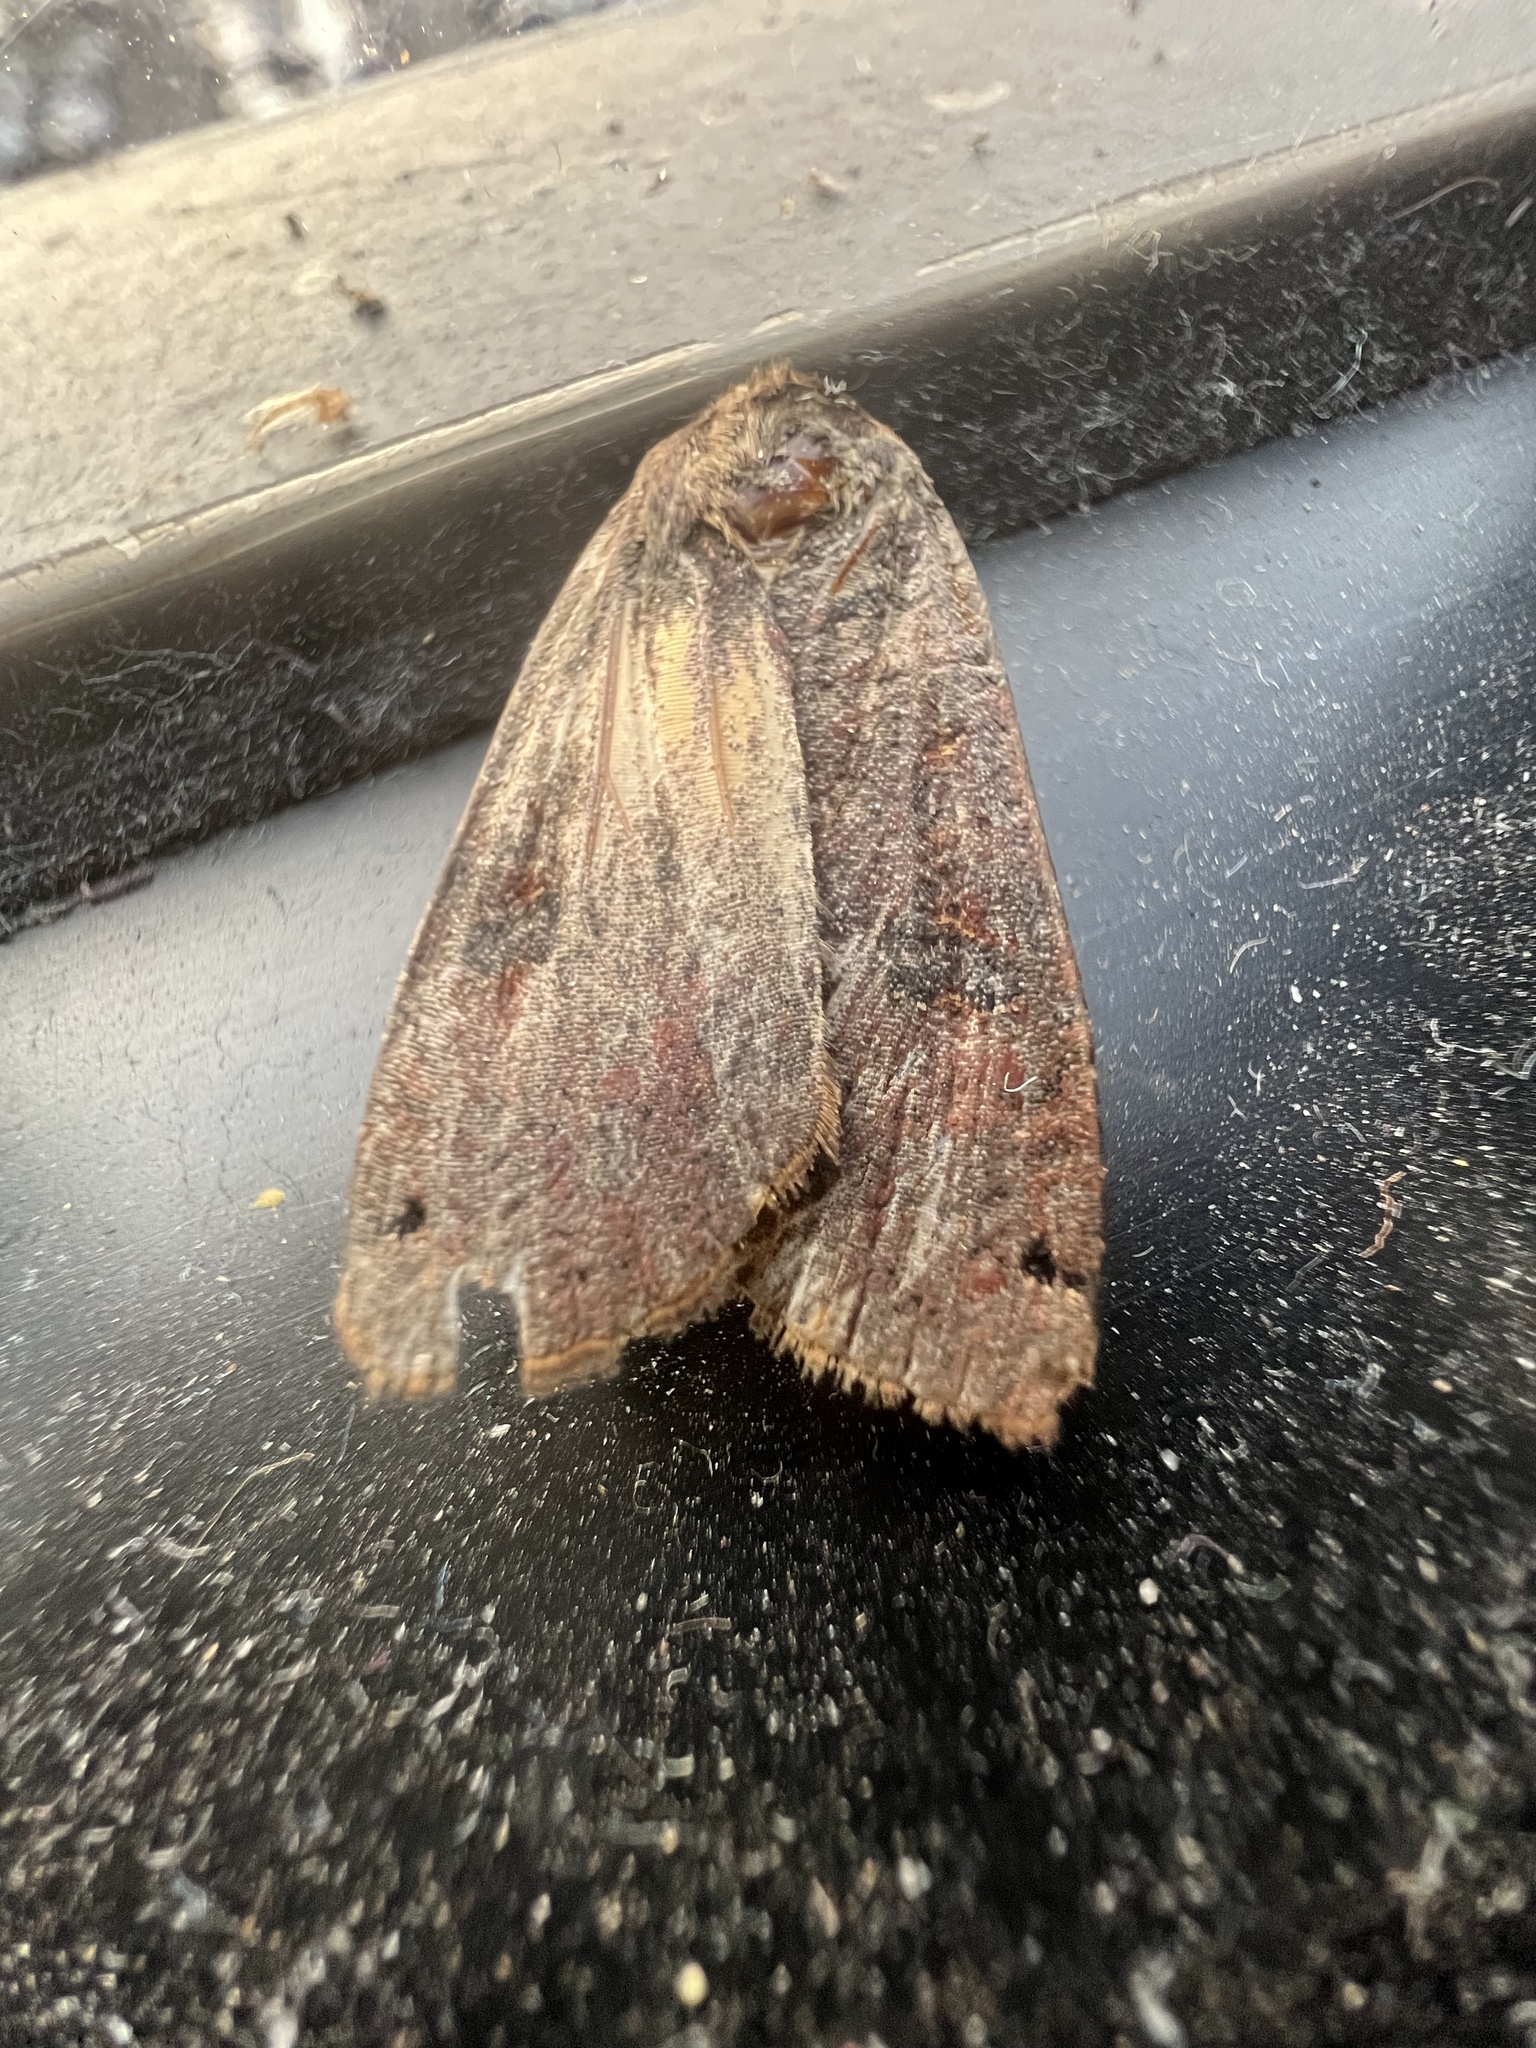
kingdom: Animalia
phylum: Arthropoda
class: Insecta
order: Lepidoptera
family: Noctuidae
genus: Noctua
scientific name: Noctua pronuba
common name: Large yellow underwing
